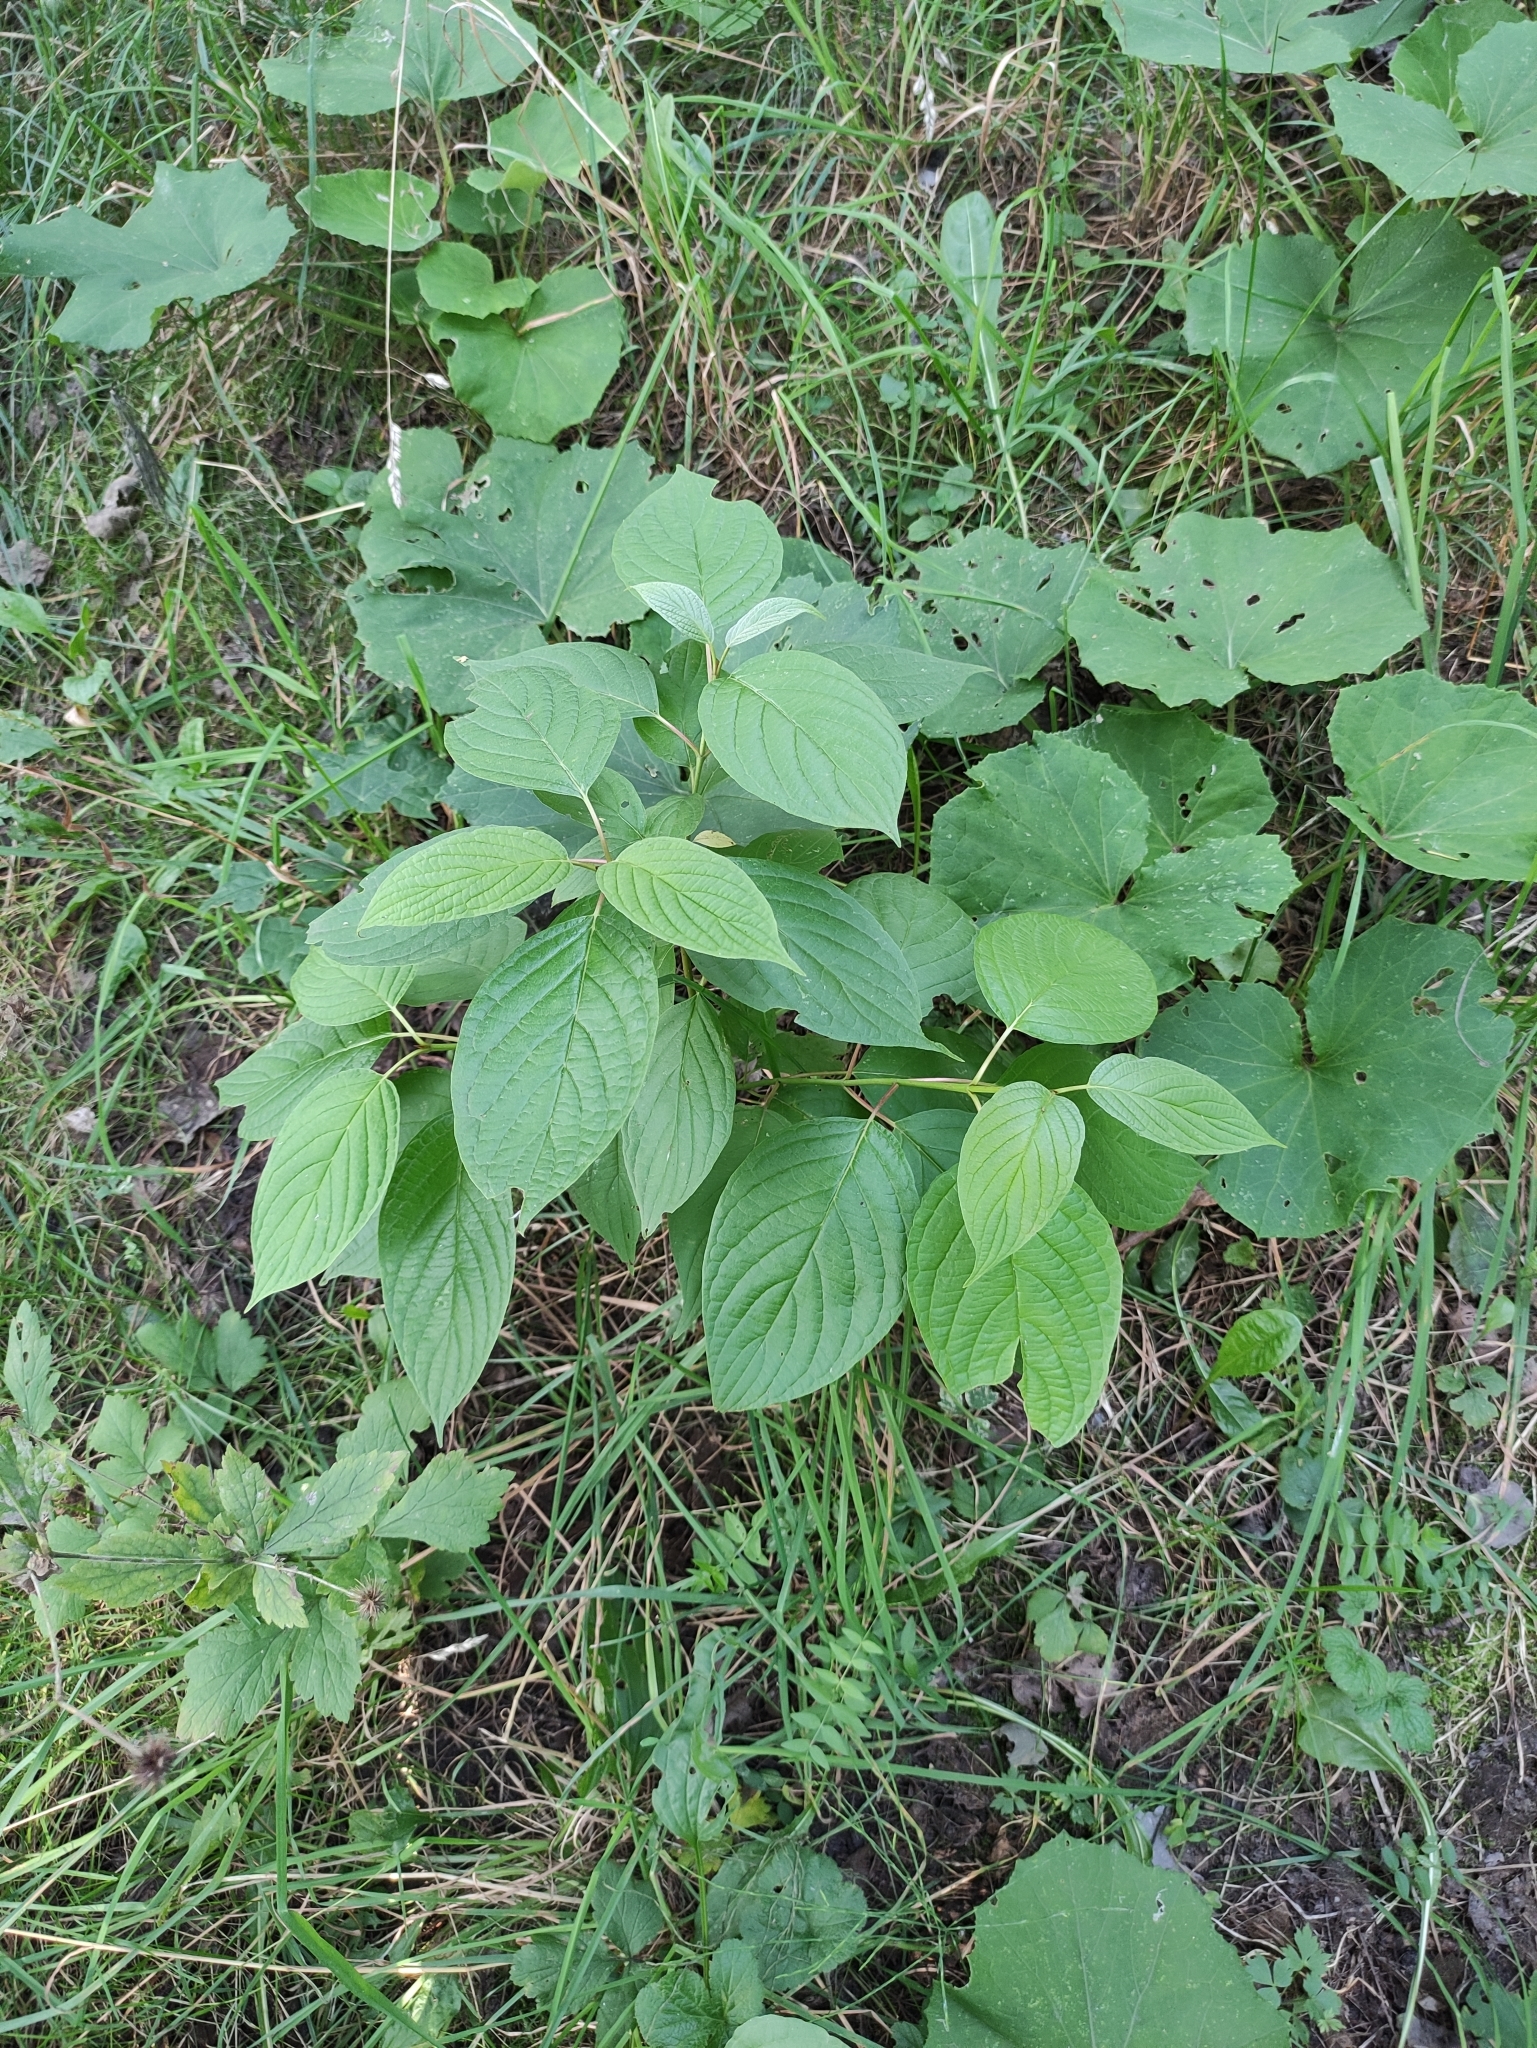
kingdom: Plantae
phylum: Tracheophyta
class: Magnoliopsida
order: Cornales
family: Cornaceae
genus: Cornus
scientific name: Cornus sericea
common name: Red-osier dogwood
